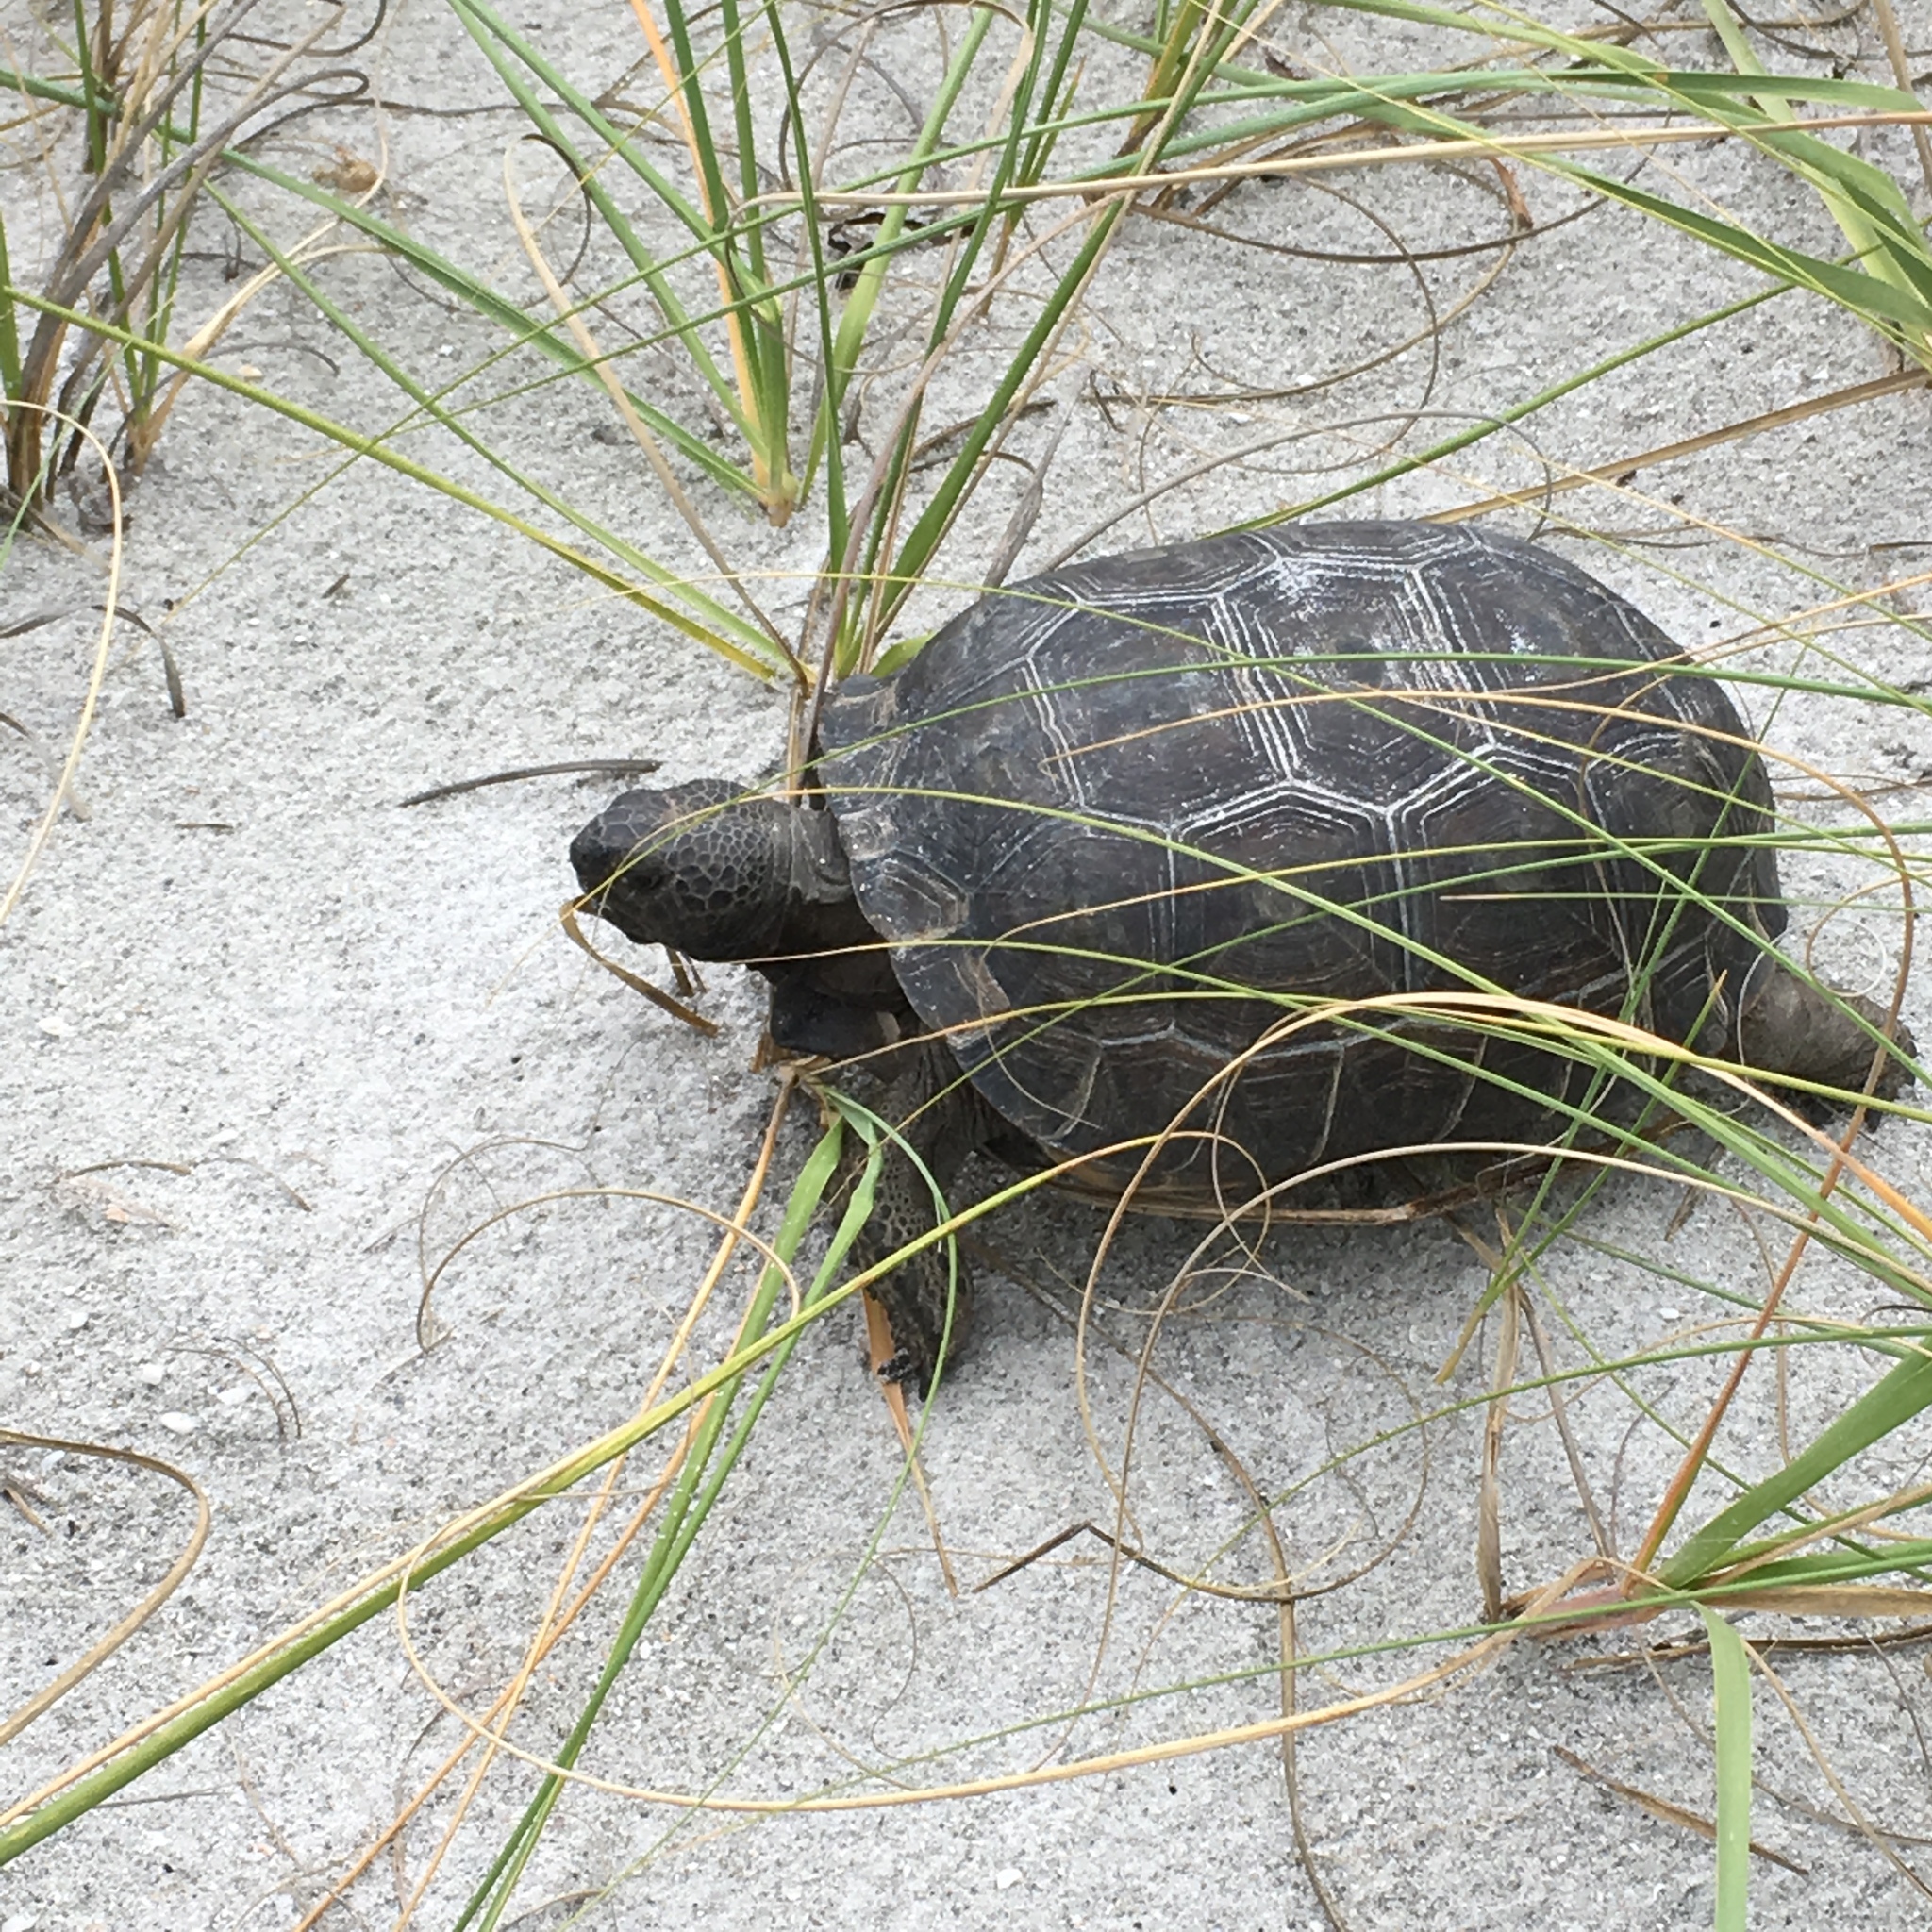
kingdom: Animalia
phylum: Chordata
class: Testudines
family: Testudinidae
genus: Gopherus
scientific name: Gopherus polyphemus
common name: Florida gopher tortoise
